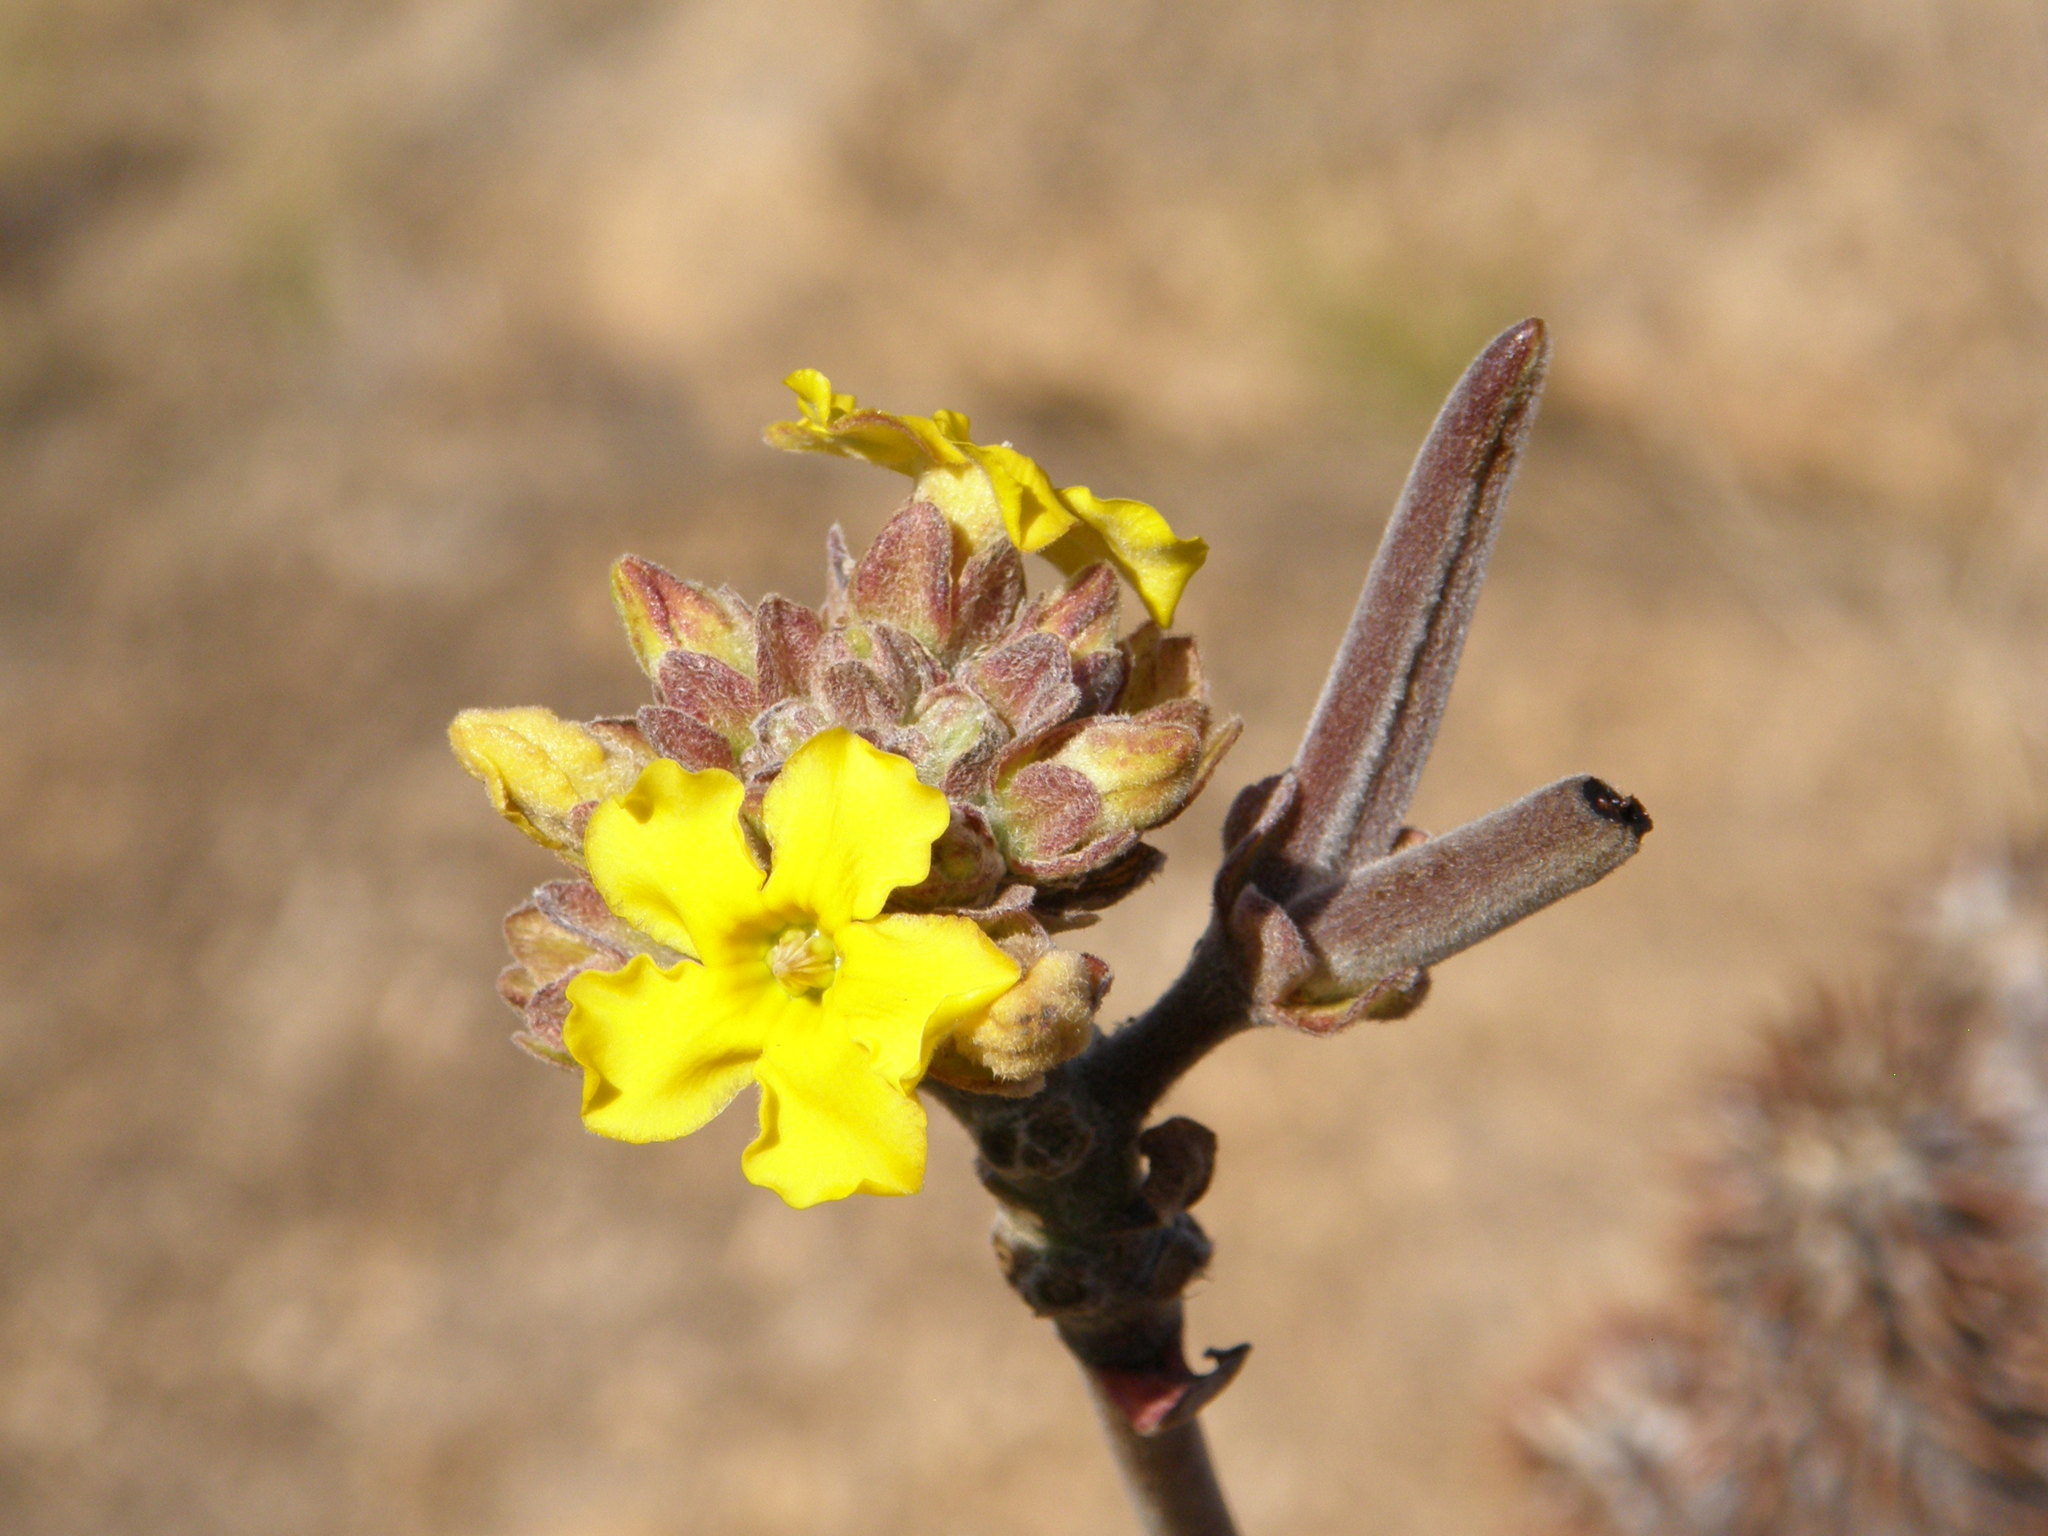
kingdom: Plantae
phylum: Tracheophyta
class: Magnoliopsida
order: Gentianales
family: Apocynaceae
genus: Pachypodium
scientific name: Pachypodium densiflorum
